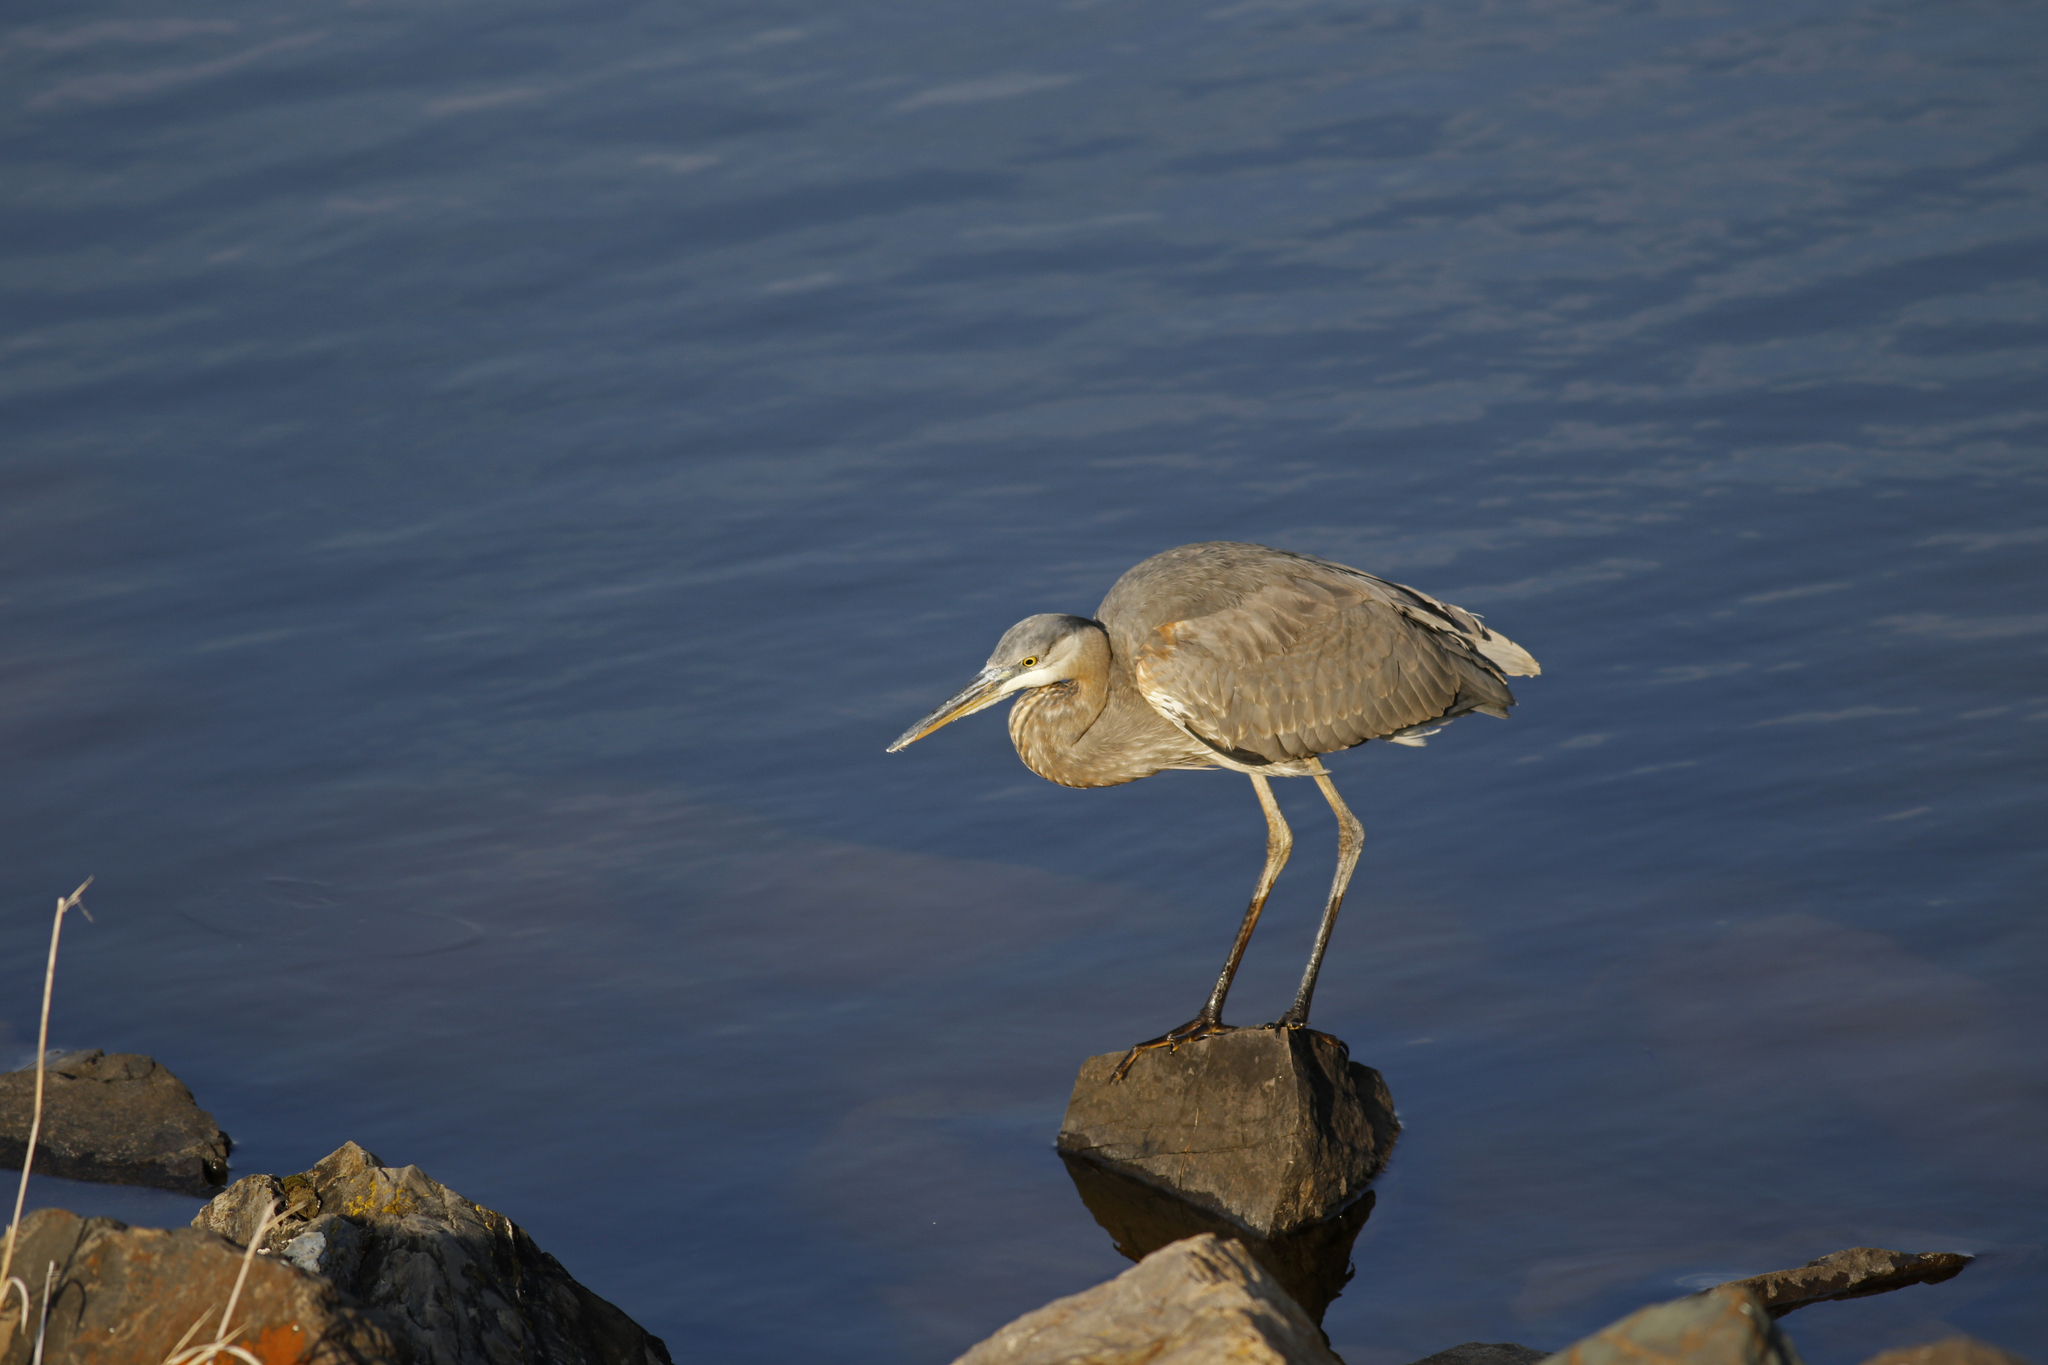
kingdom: Animalia
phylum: Chordata
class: Aves
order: Pelecaniformes
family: Ardeidae
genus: Ardea
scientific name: Ardea herodias
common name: Great blue heron
